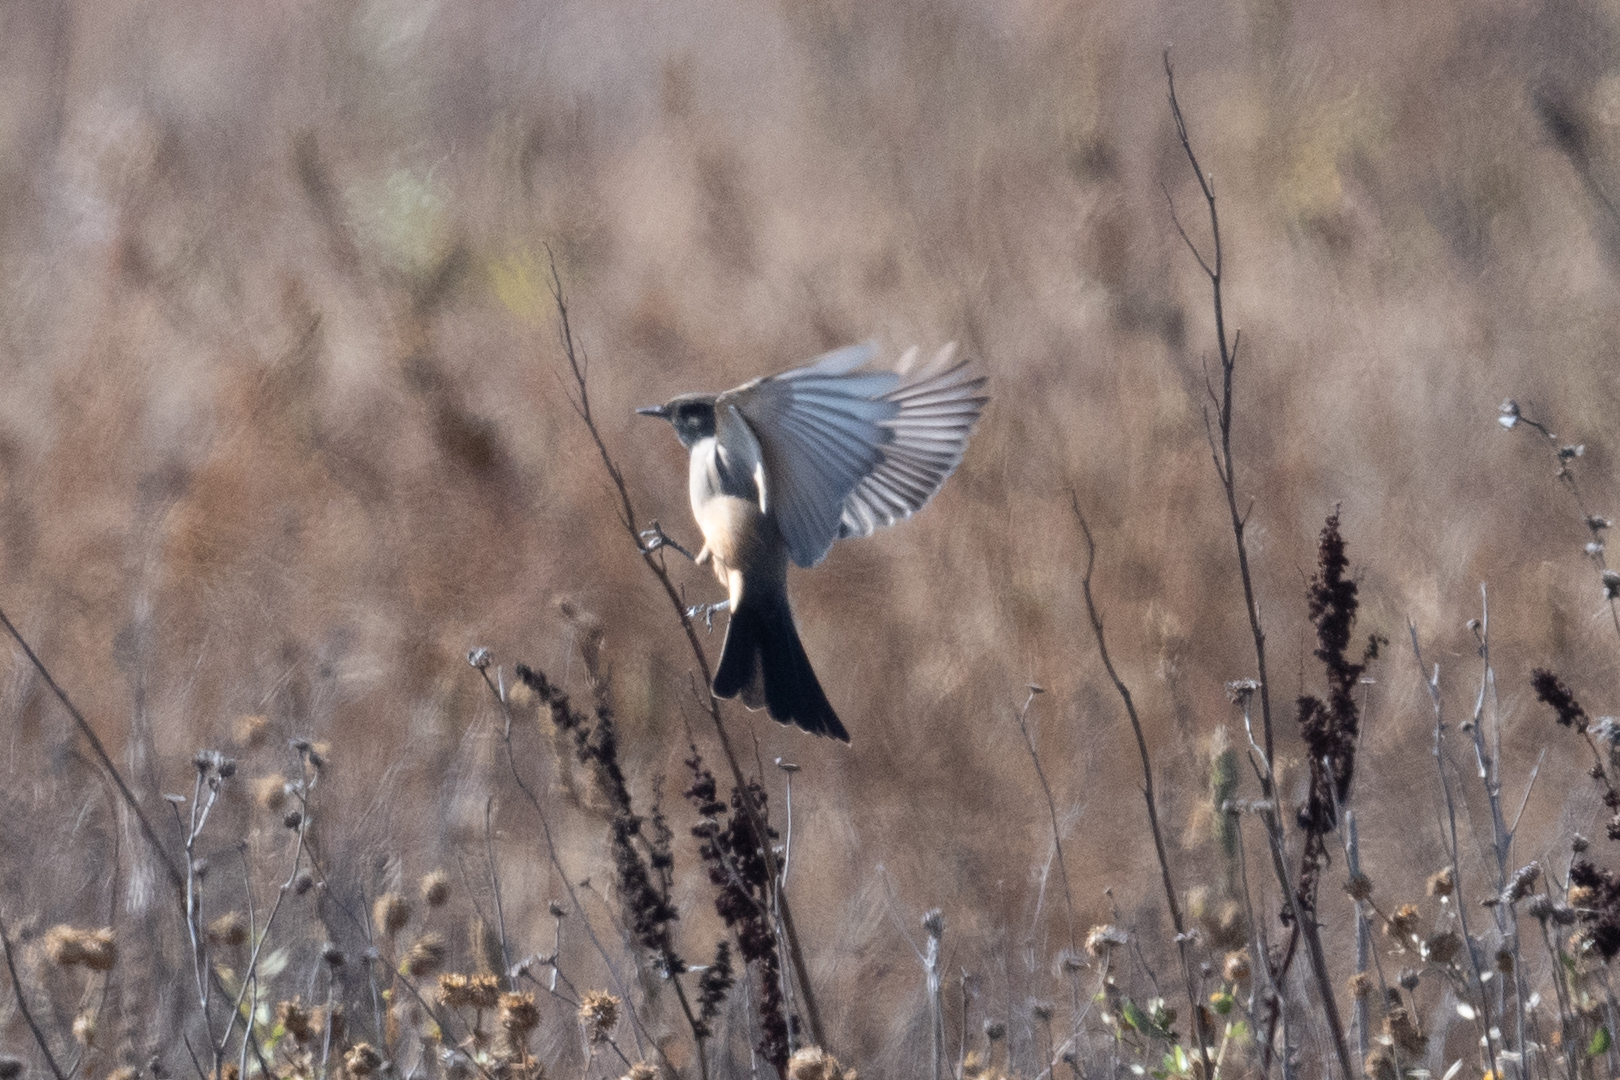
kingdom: Animalia
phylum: Chordata
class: Aves
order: Passeriformes
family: Tyrannidae
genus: Sayornis
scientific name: Sayornis saya
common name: Say's phoebe
